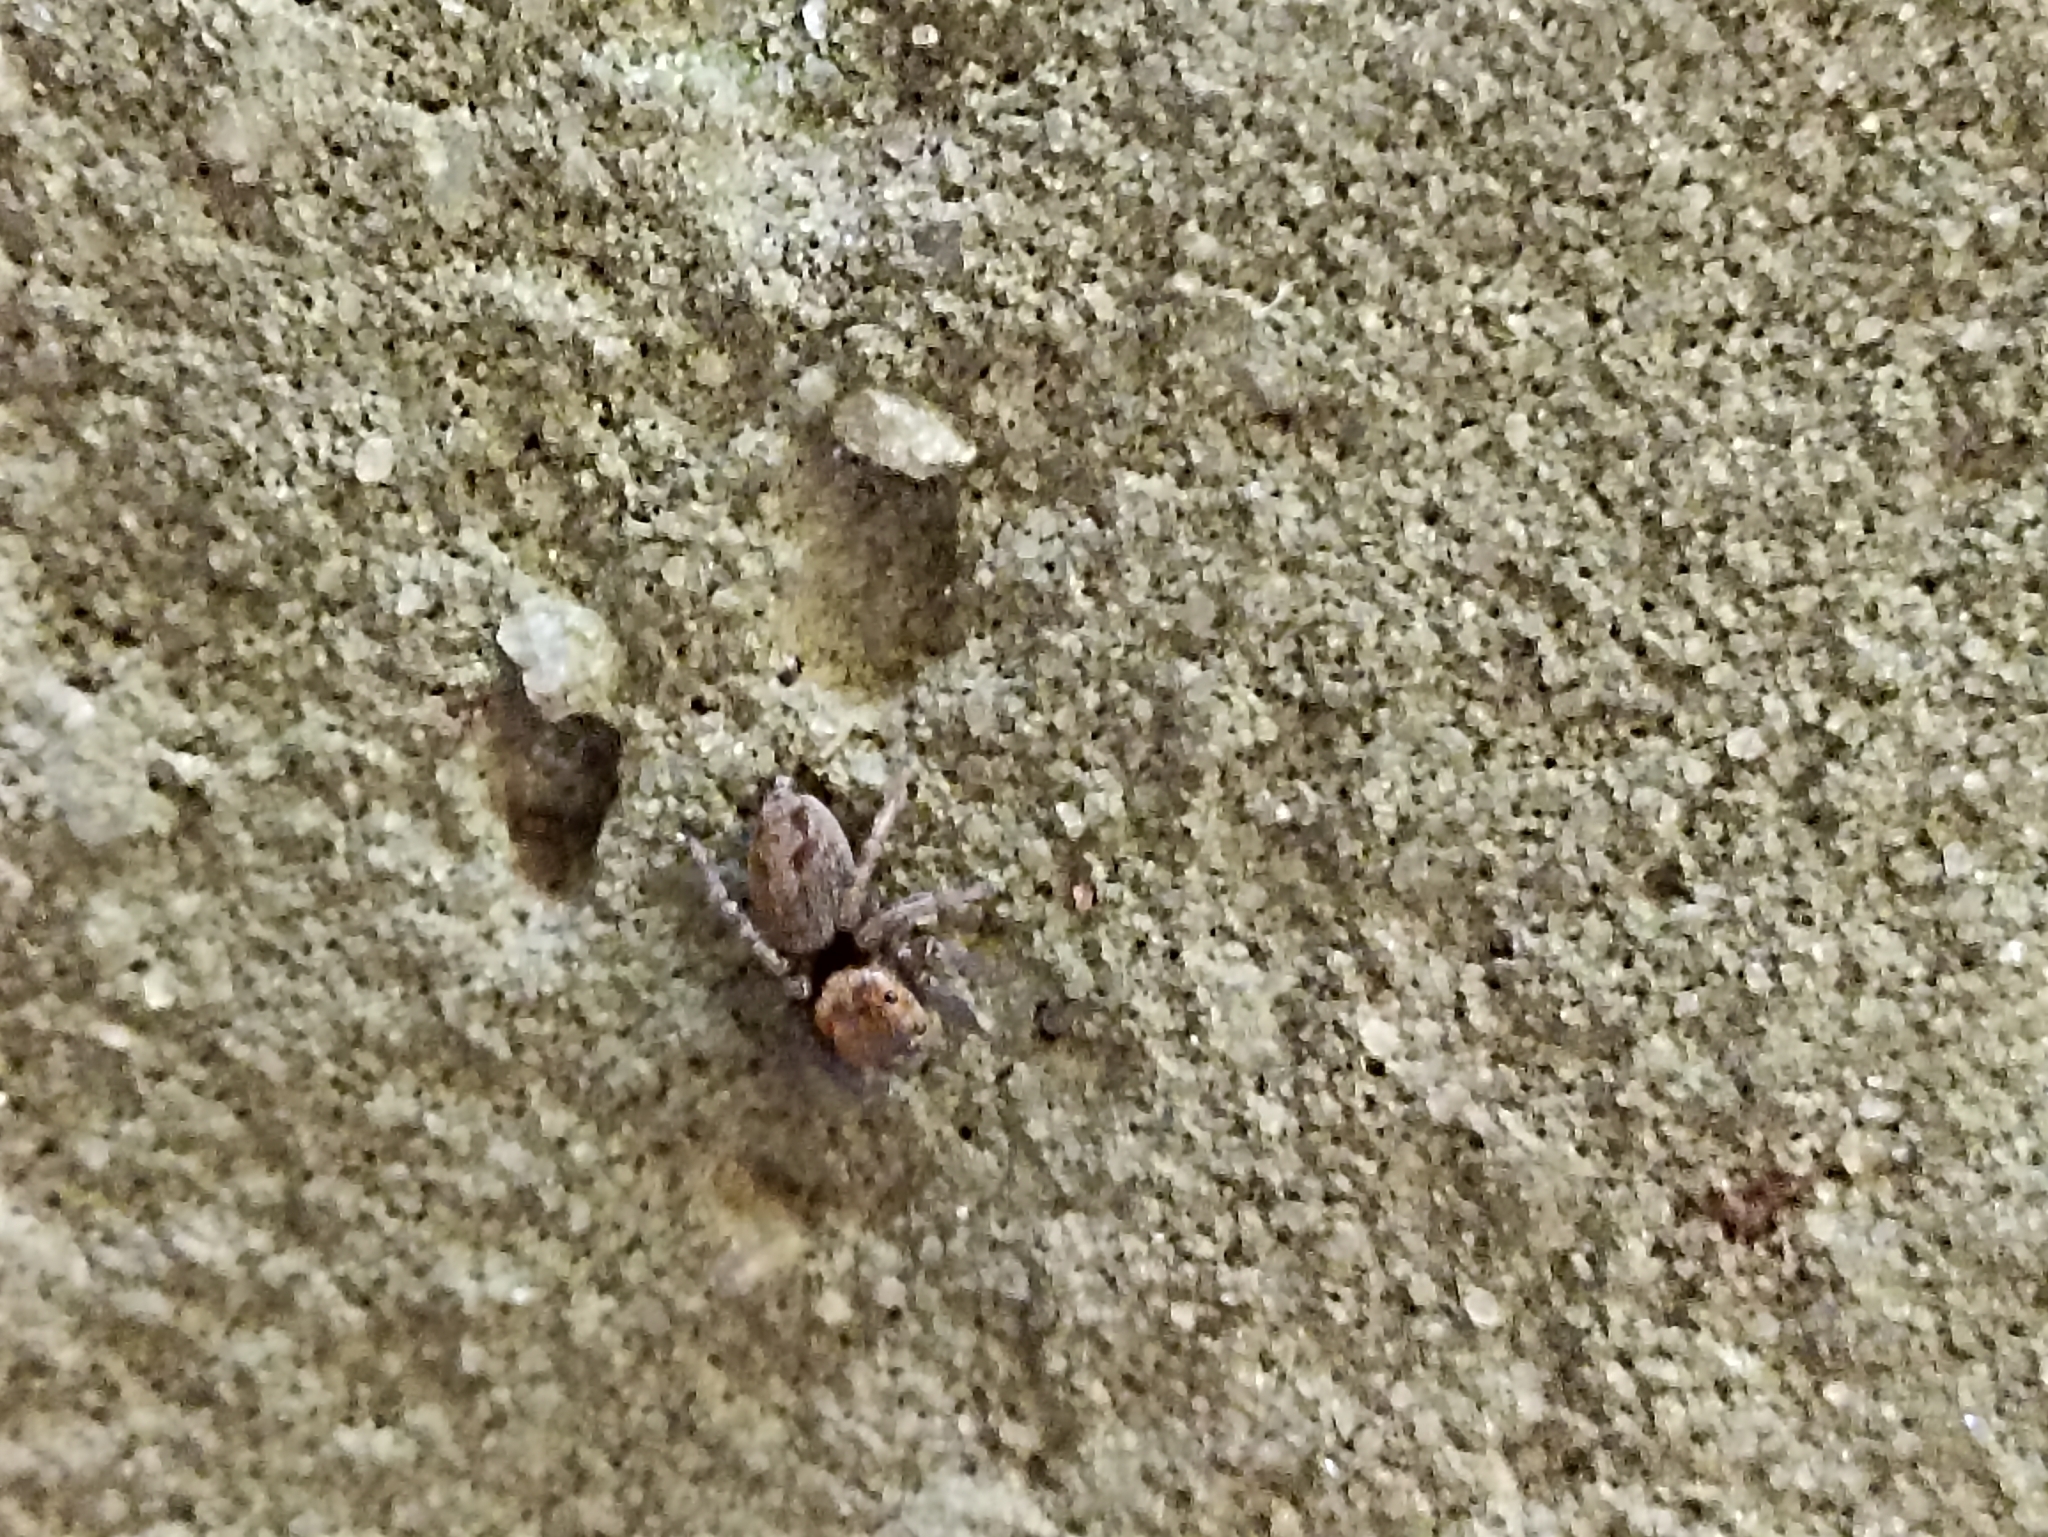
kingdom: Animalia
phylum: Arthropoda
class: Arachnida
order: Araneae
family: Salticidae
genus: Hasarius
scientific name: Hasarius adansoni
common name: Jumping spider
